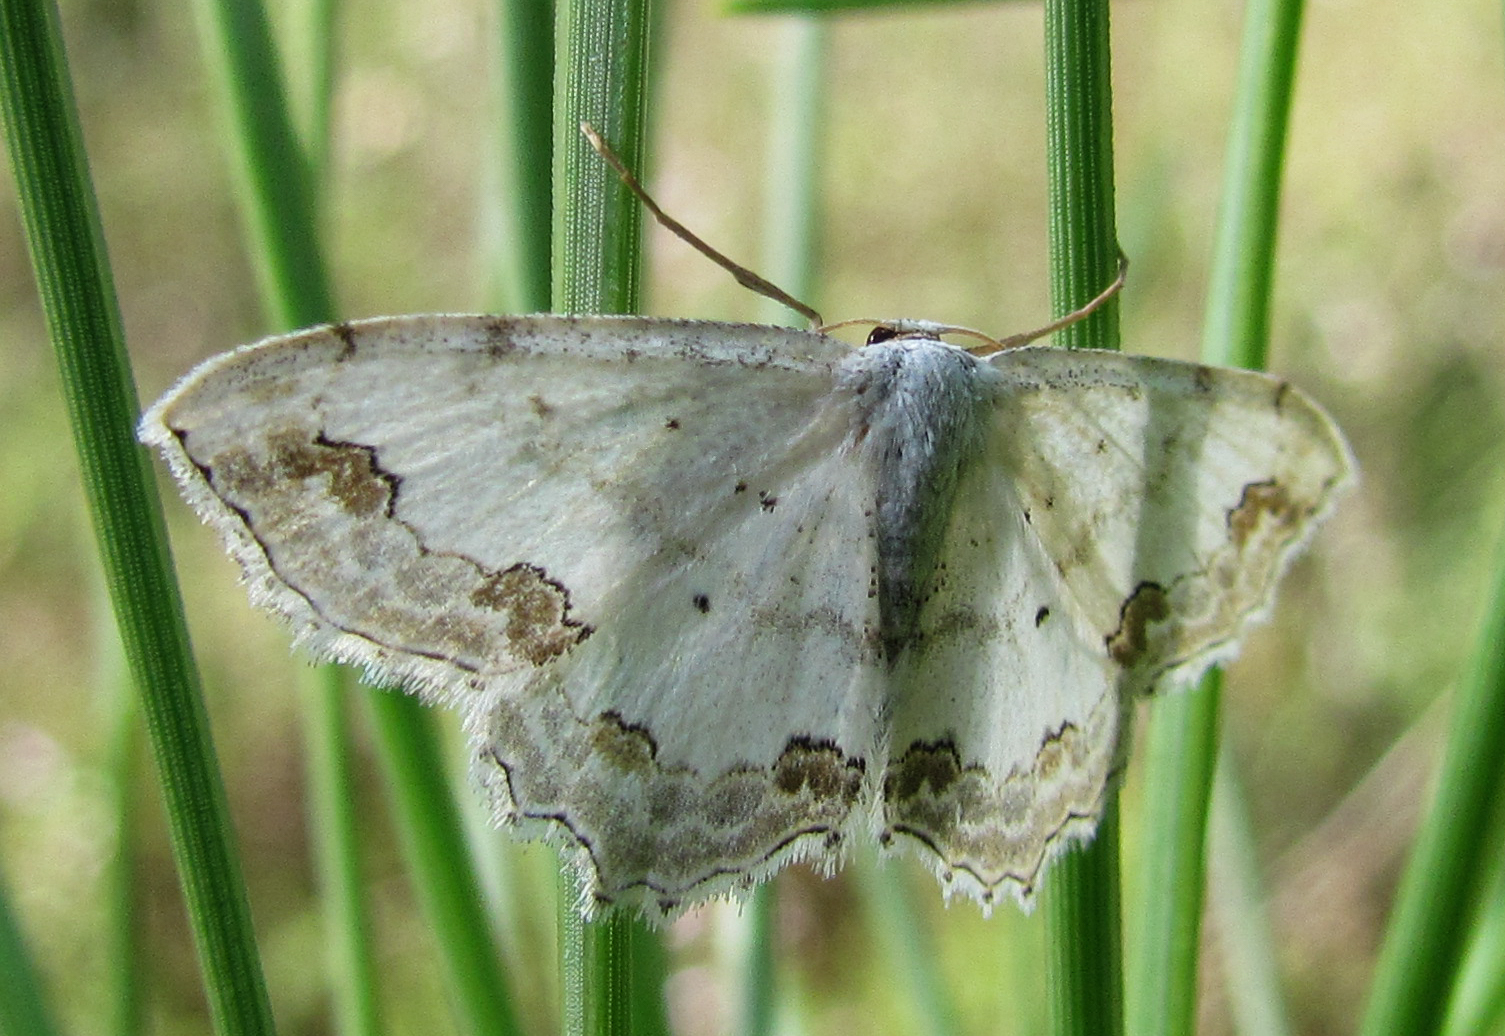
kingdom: Animalia
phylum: Arthropoda
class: Insecta
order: Lepidoptera
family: Geometridae
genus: Scopula
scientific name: Scopula ornata
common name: Lace border
